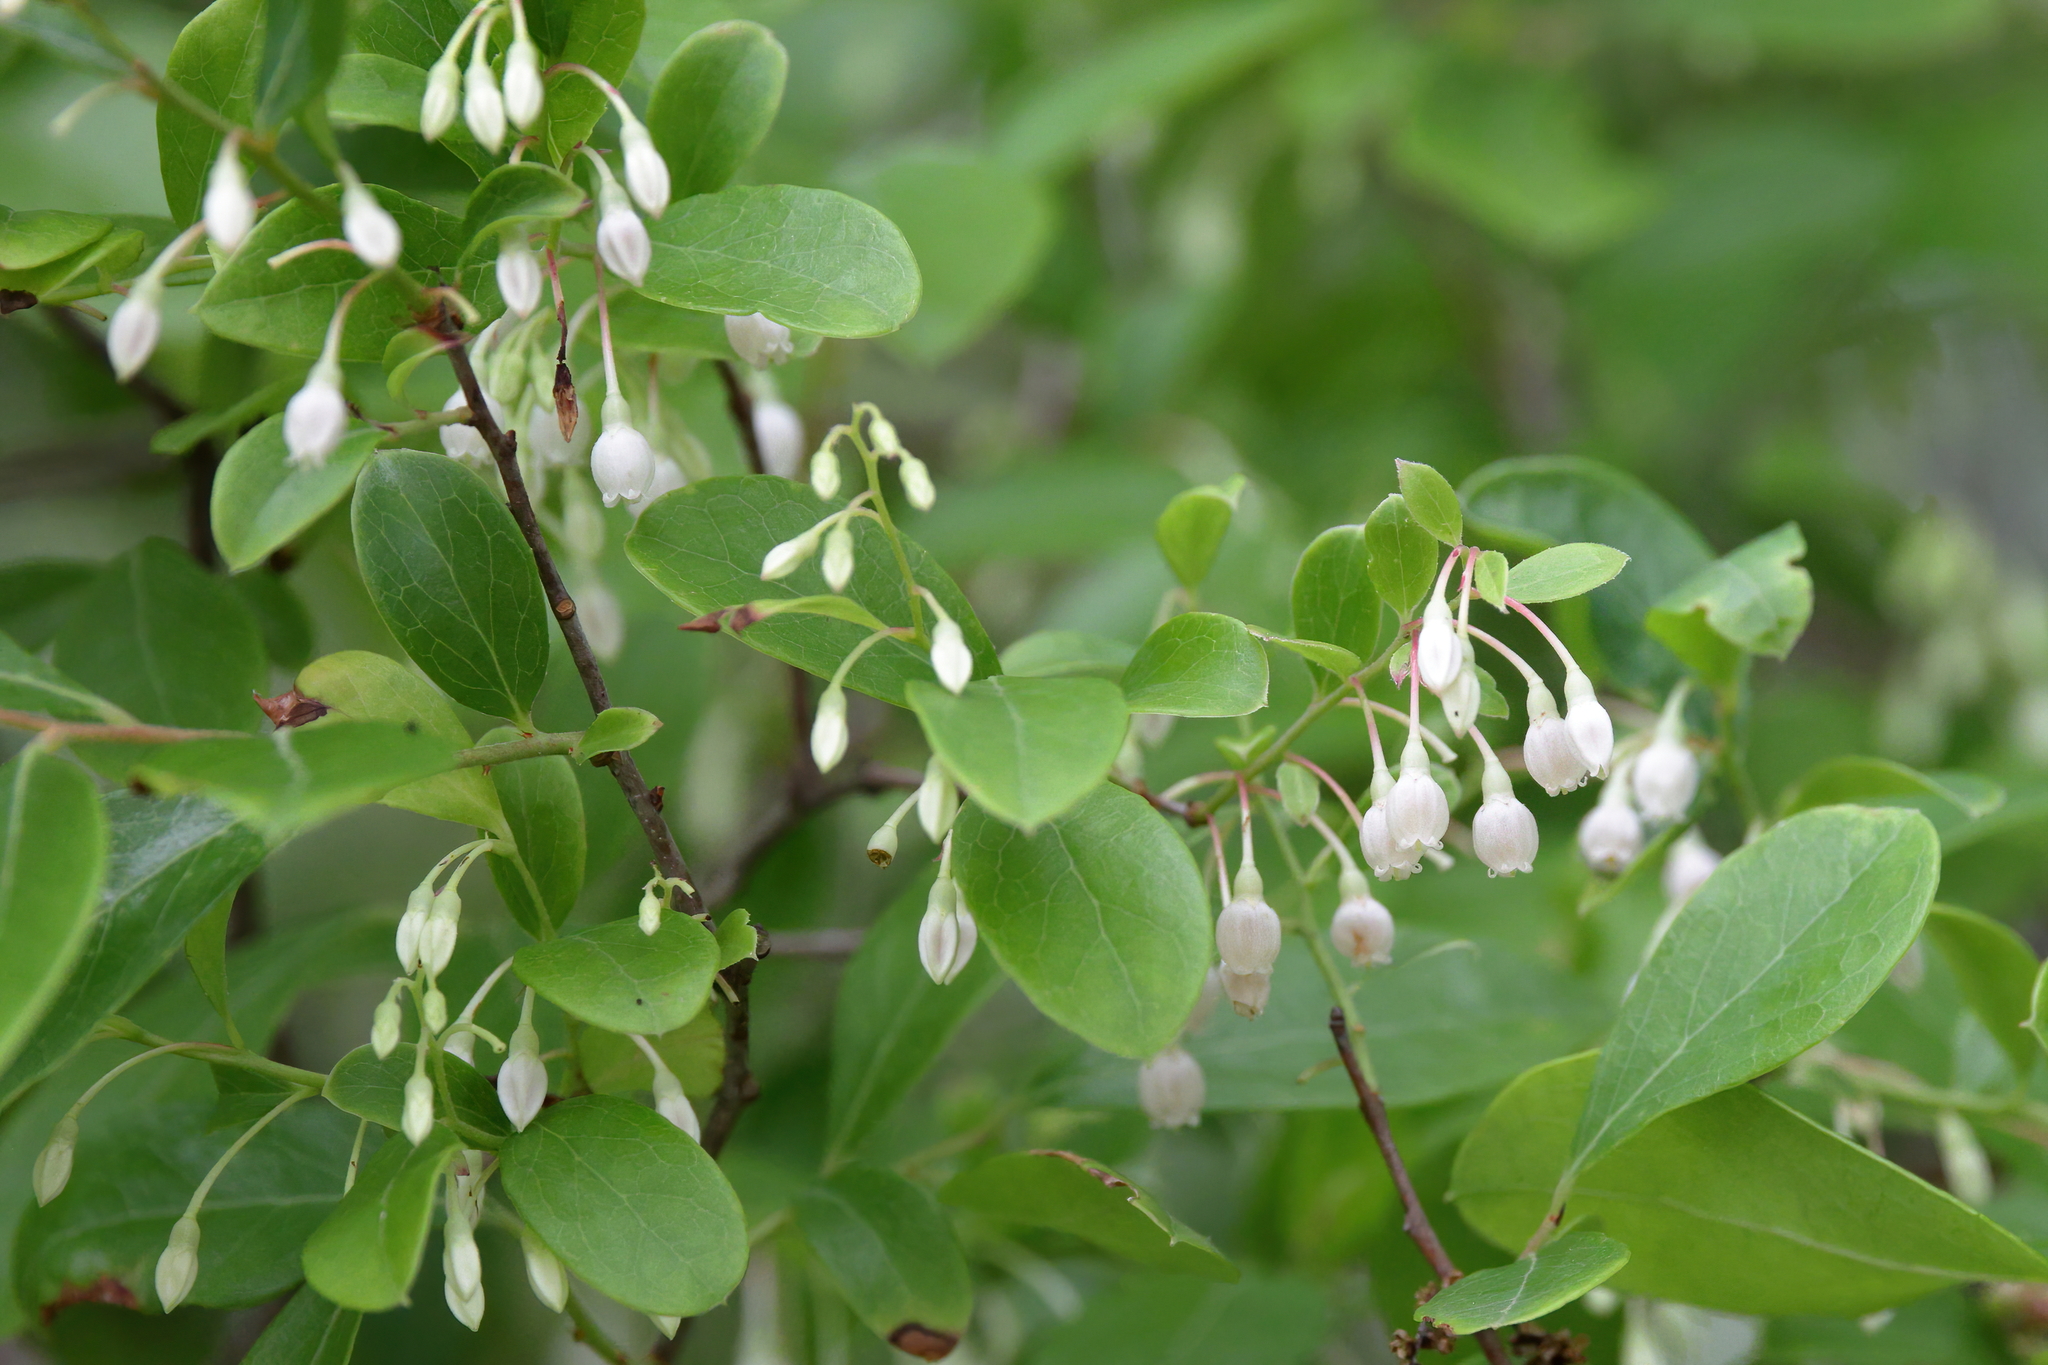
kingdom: Plantae
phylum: Tracheophyta
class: Magnoliopsida
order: Ericales
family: Ericaceae
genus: Vaccinium
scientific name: Vaccinium arboreum
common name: Farkleberry
